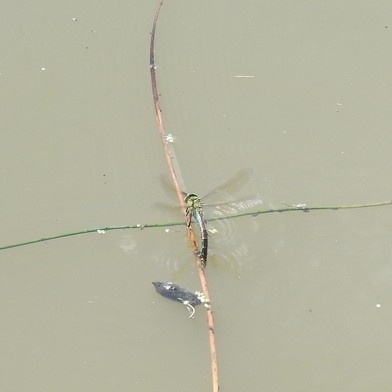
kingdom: Animalia
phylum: Arthropoda
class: Insecta
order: Odonata
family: Aeshnidae
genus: Anax
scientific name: Anax imperator
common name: Emperor dragonfly
